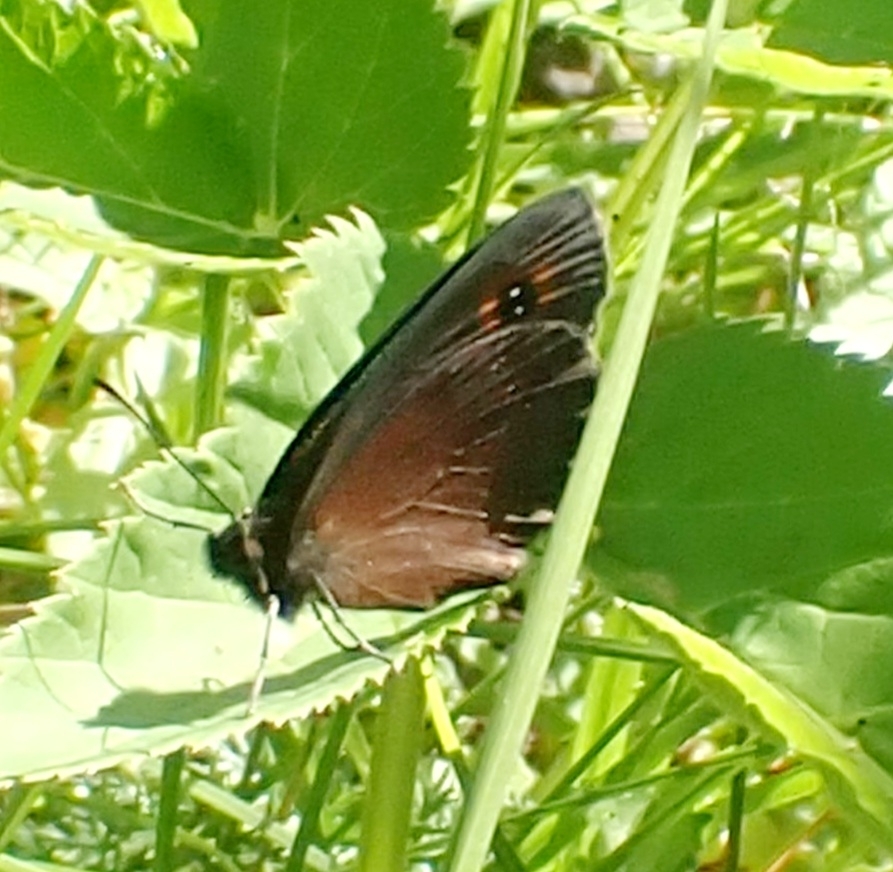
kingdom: Animalia
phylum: Arthropoda
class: Insecta
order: Lepidoptera
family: Nymphalidae
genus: Erebia
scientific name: Erebia aethiops
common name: Scotch argus
